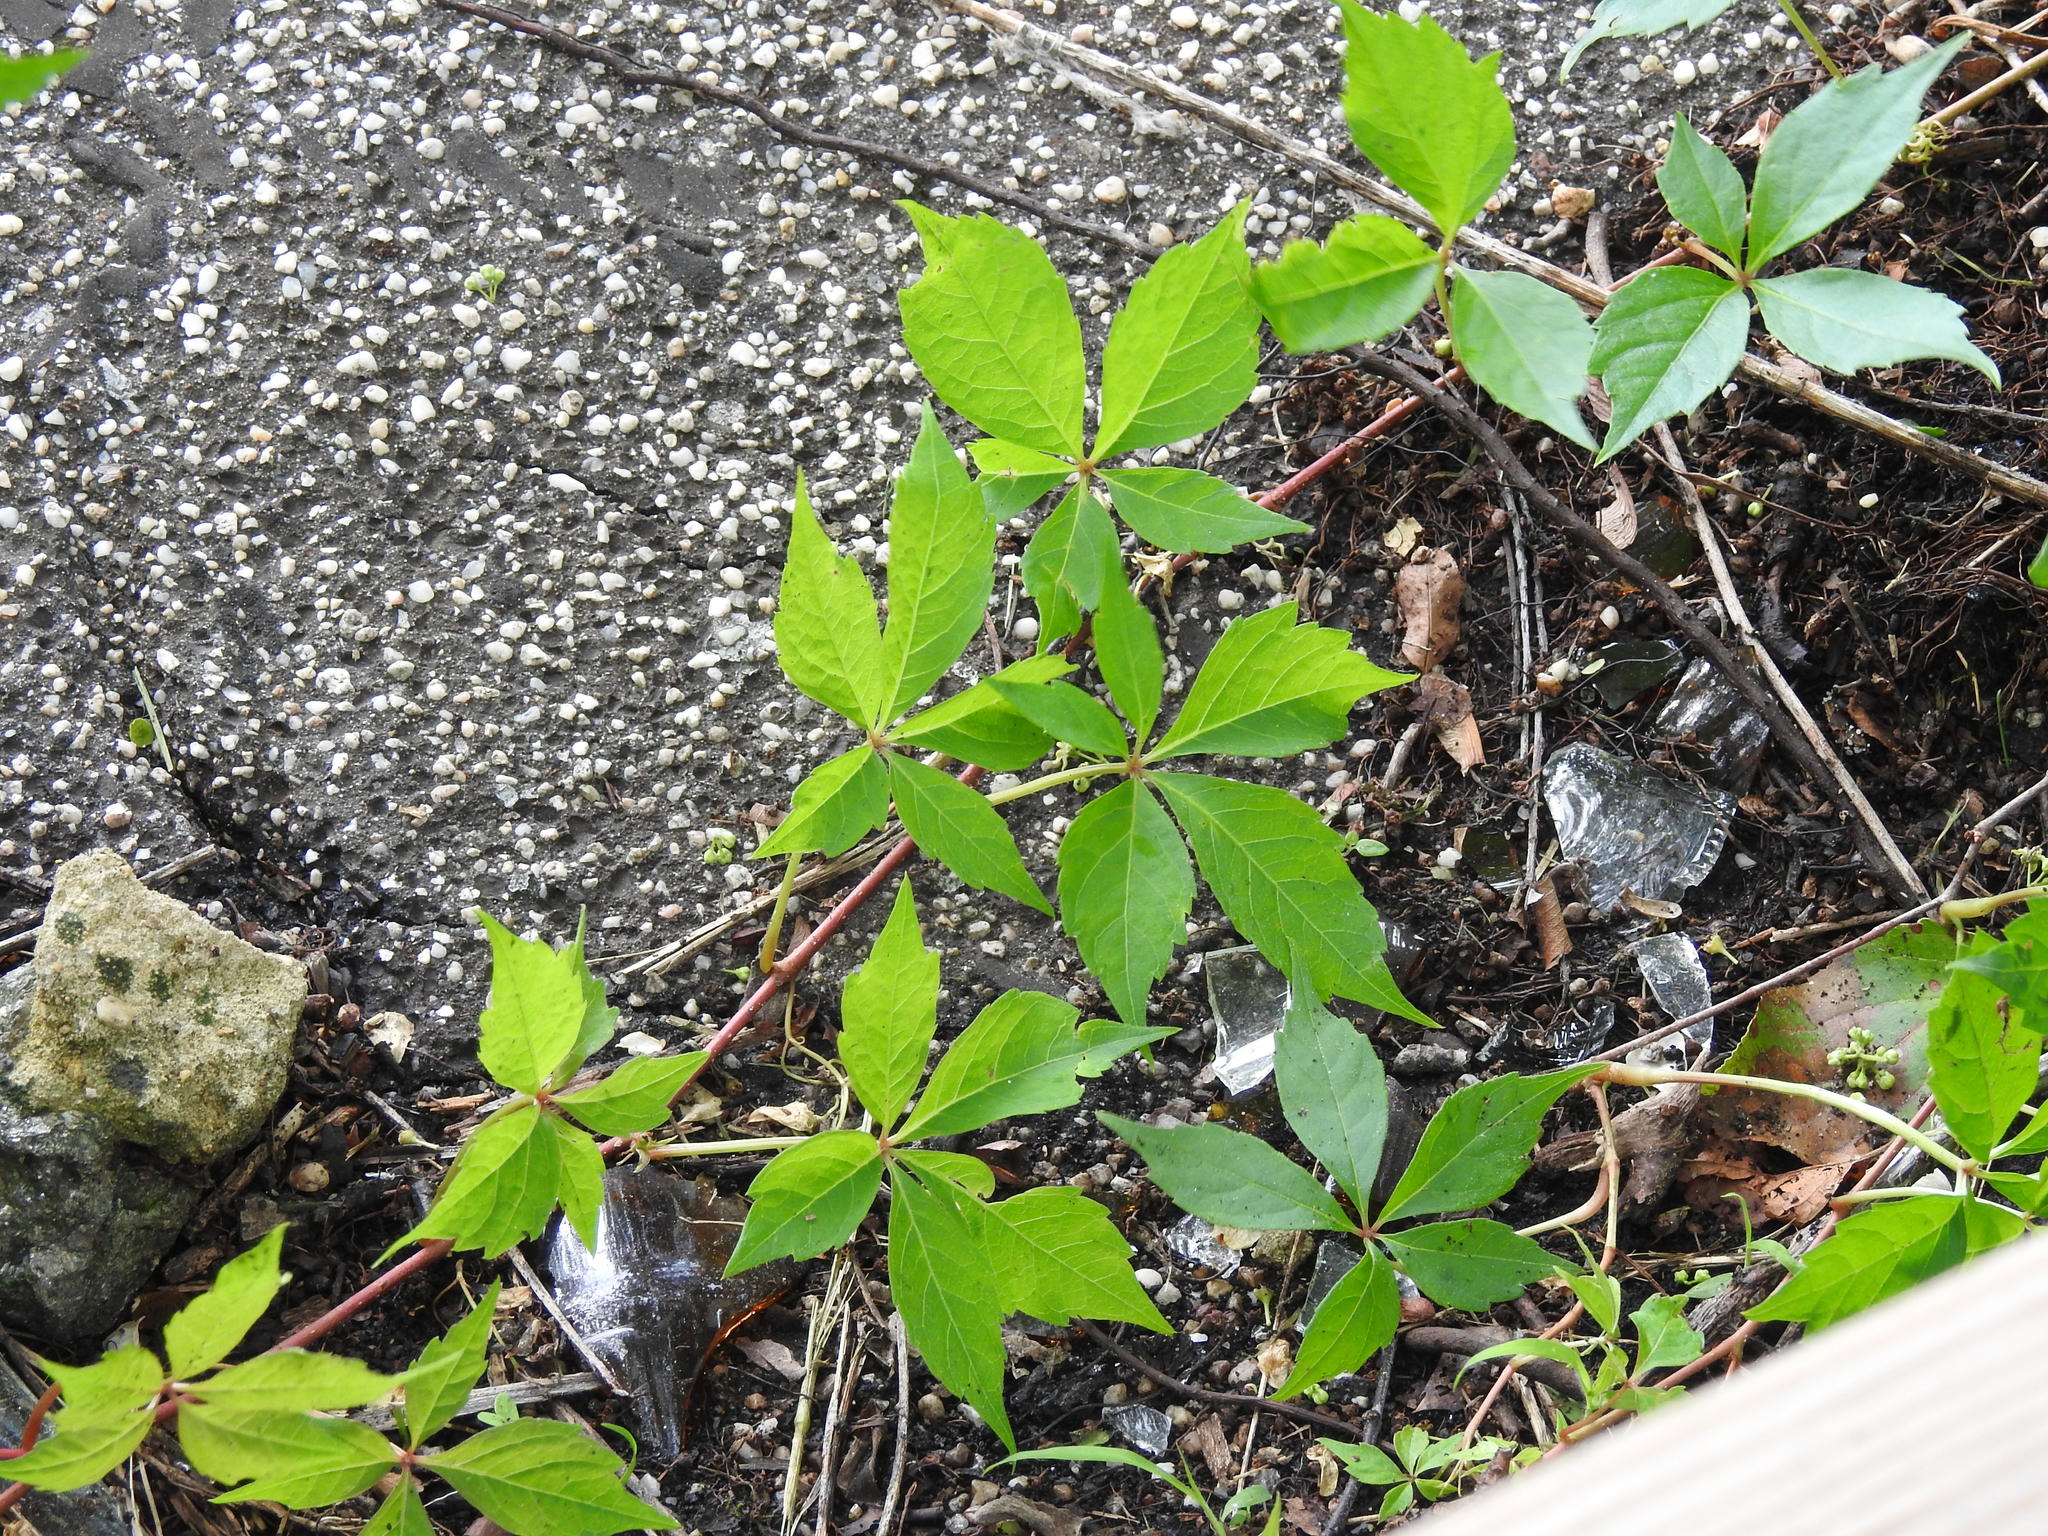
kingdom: Plantae
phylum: Tracheophyta
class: Magnoliopsida
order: Vitales
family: Vitaceae
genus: Parthenocissus
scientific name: Parthenocissus quinquefolia
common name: Virginia-creeper
